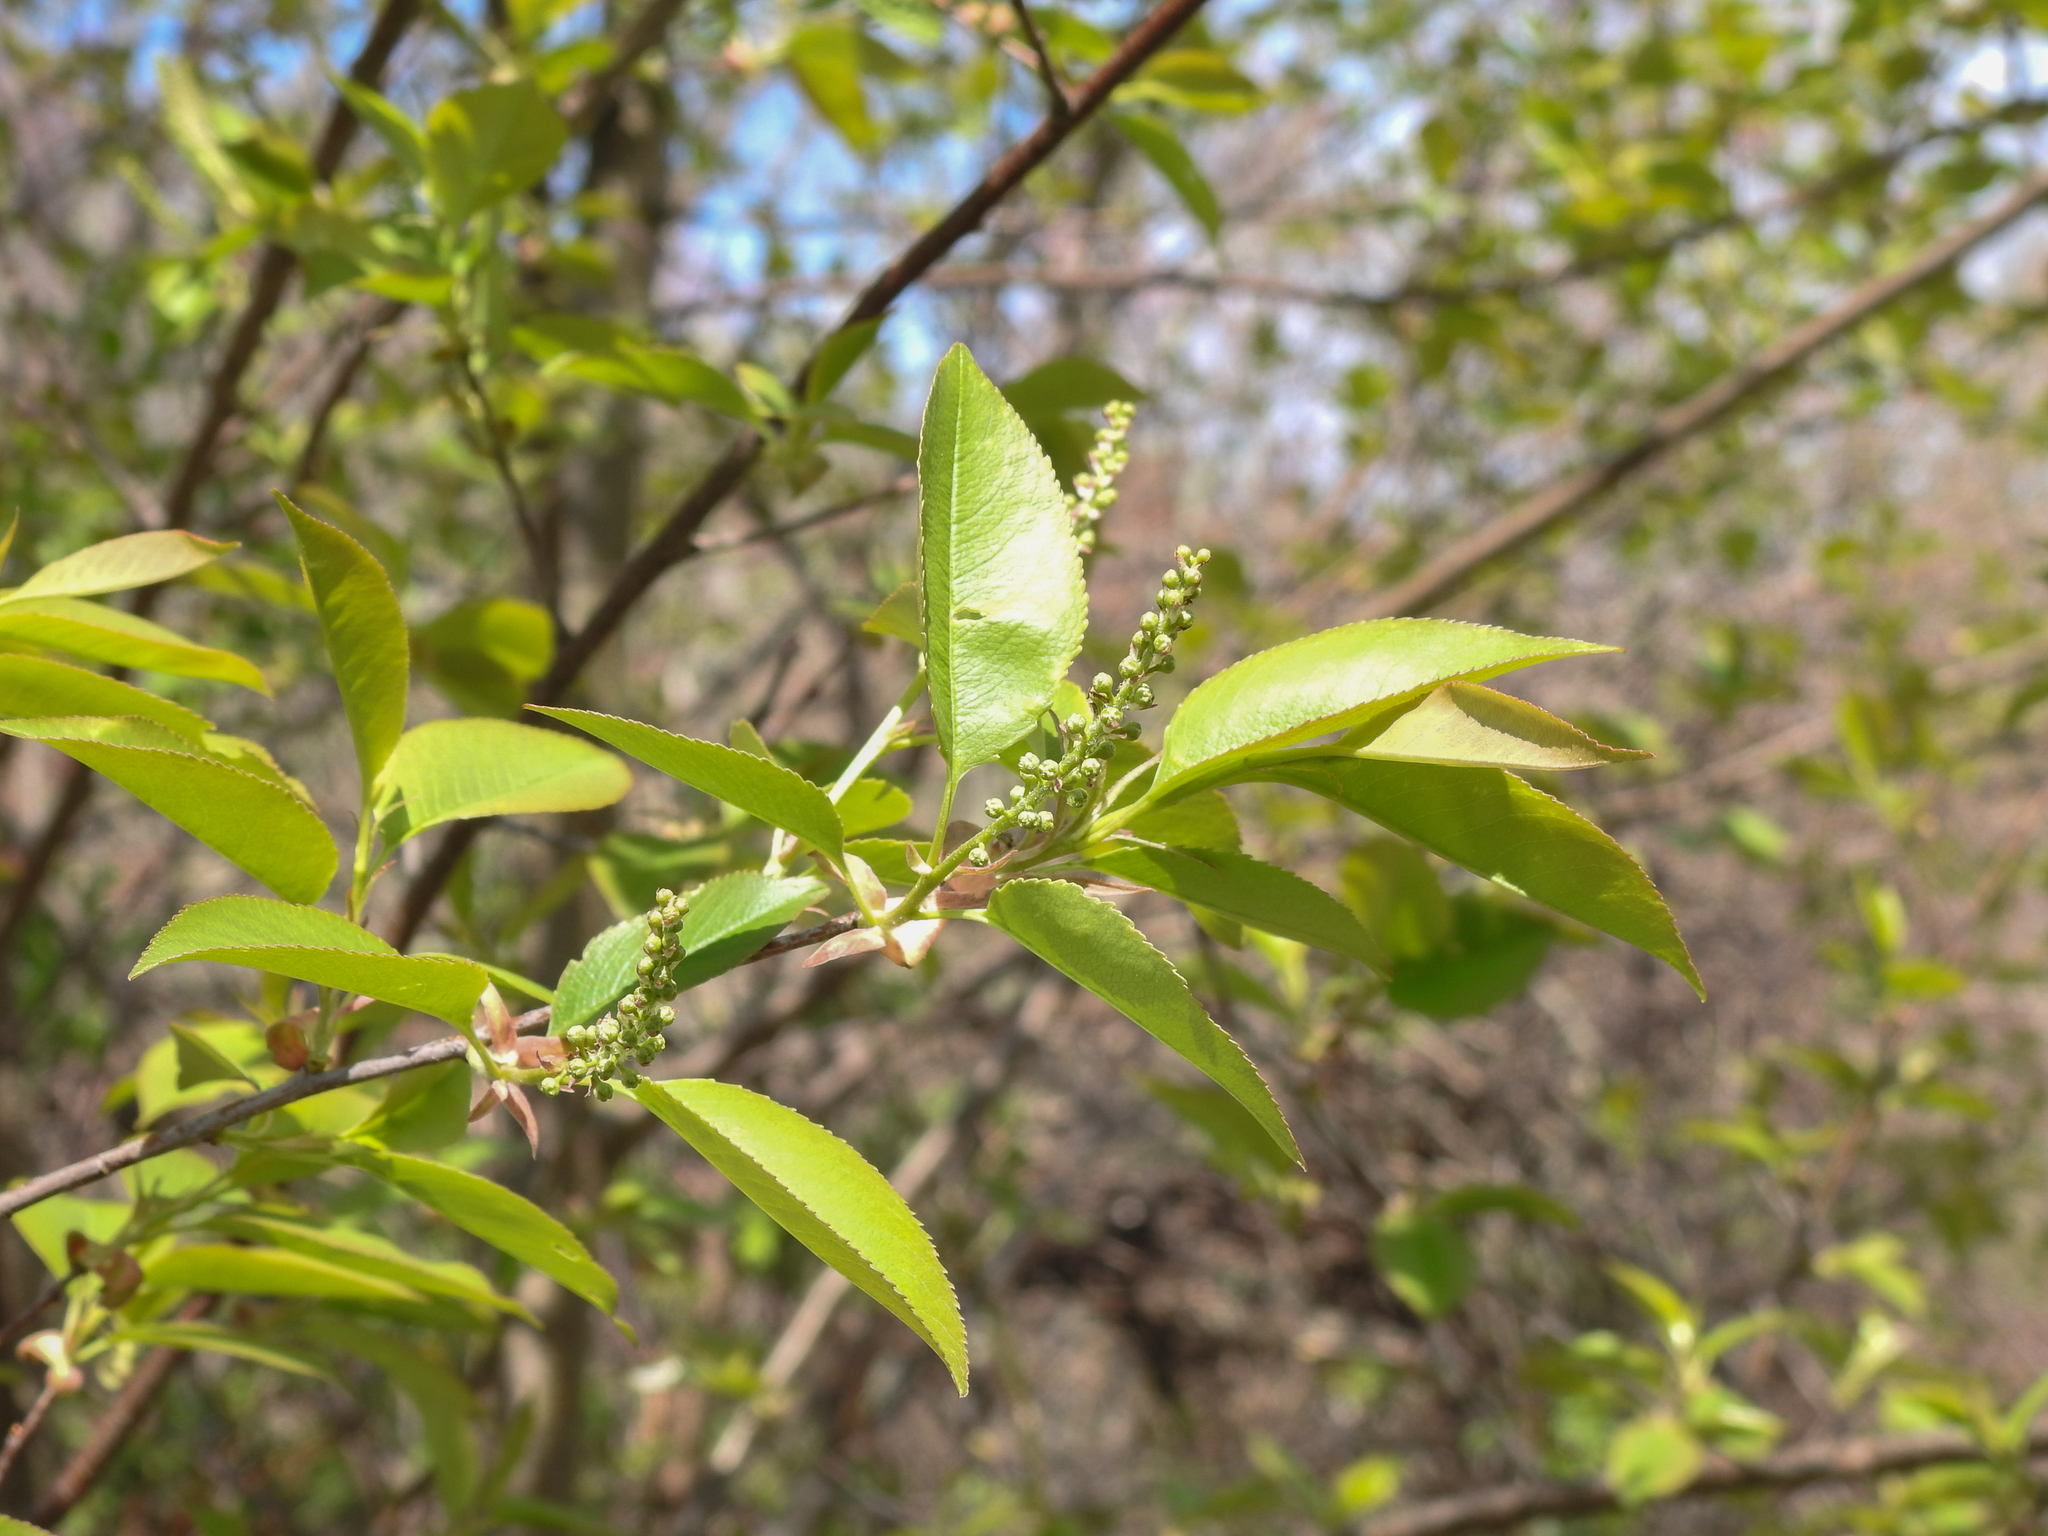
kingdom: Plantae
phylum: Tracheophyta
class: Magnoliopsida
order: Rosales
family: Rosaceae
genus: Prunus
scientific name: Prunus serotina
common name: Black cherry
